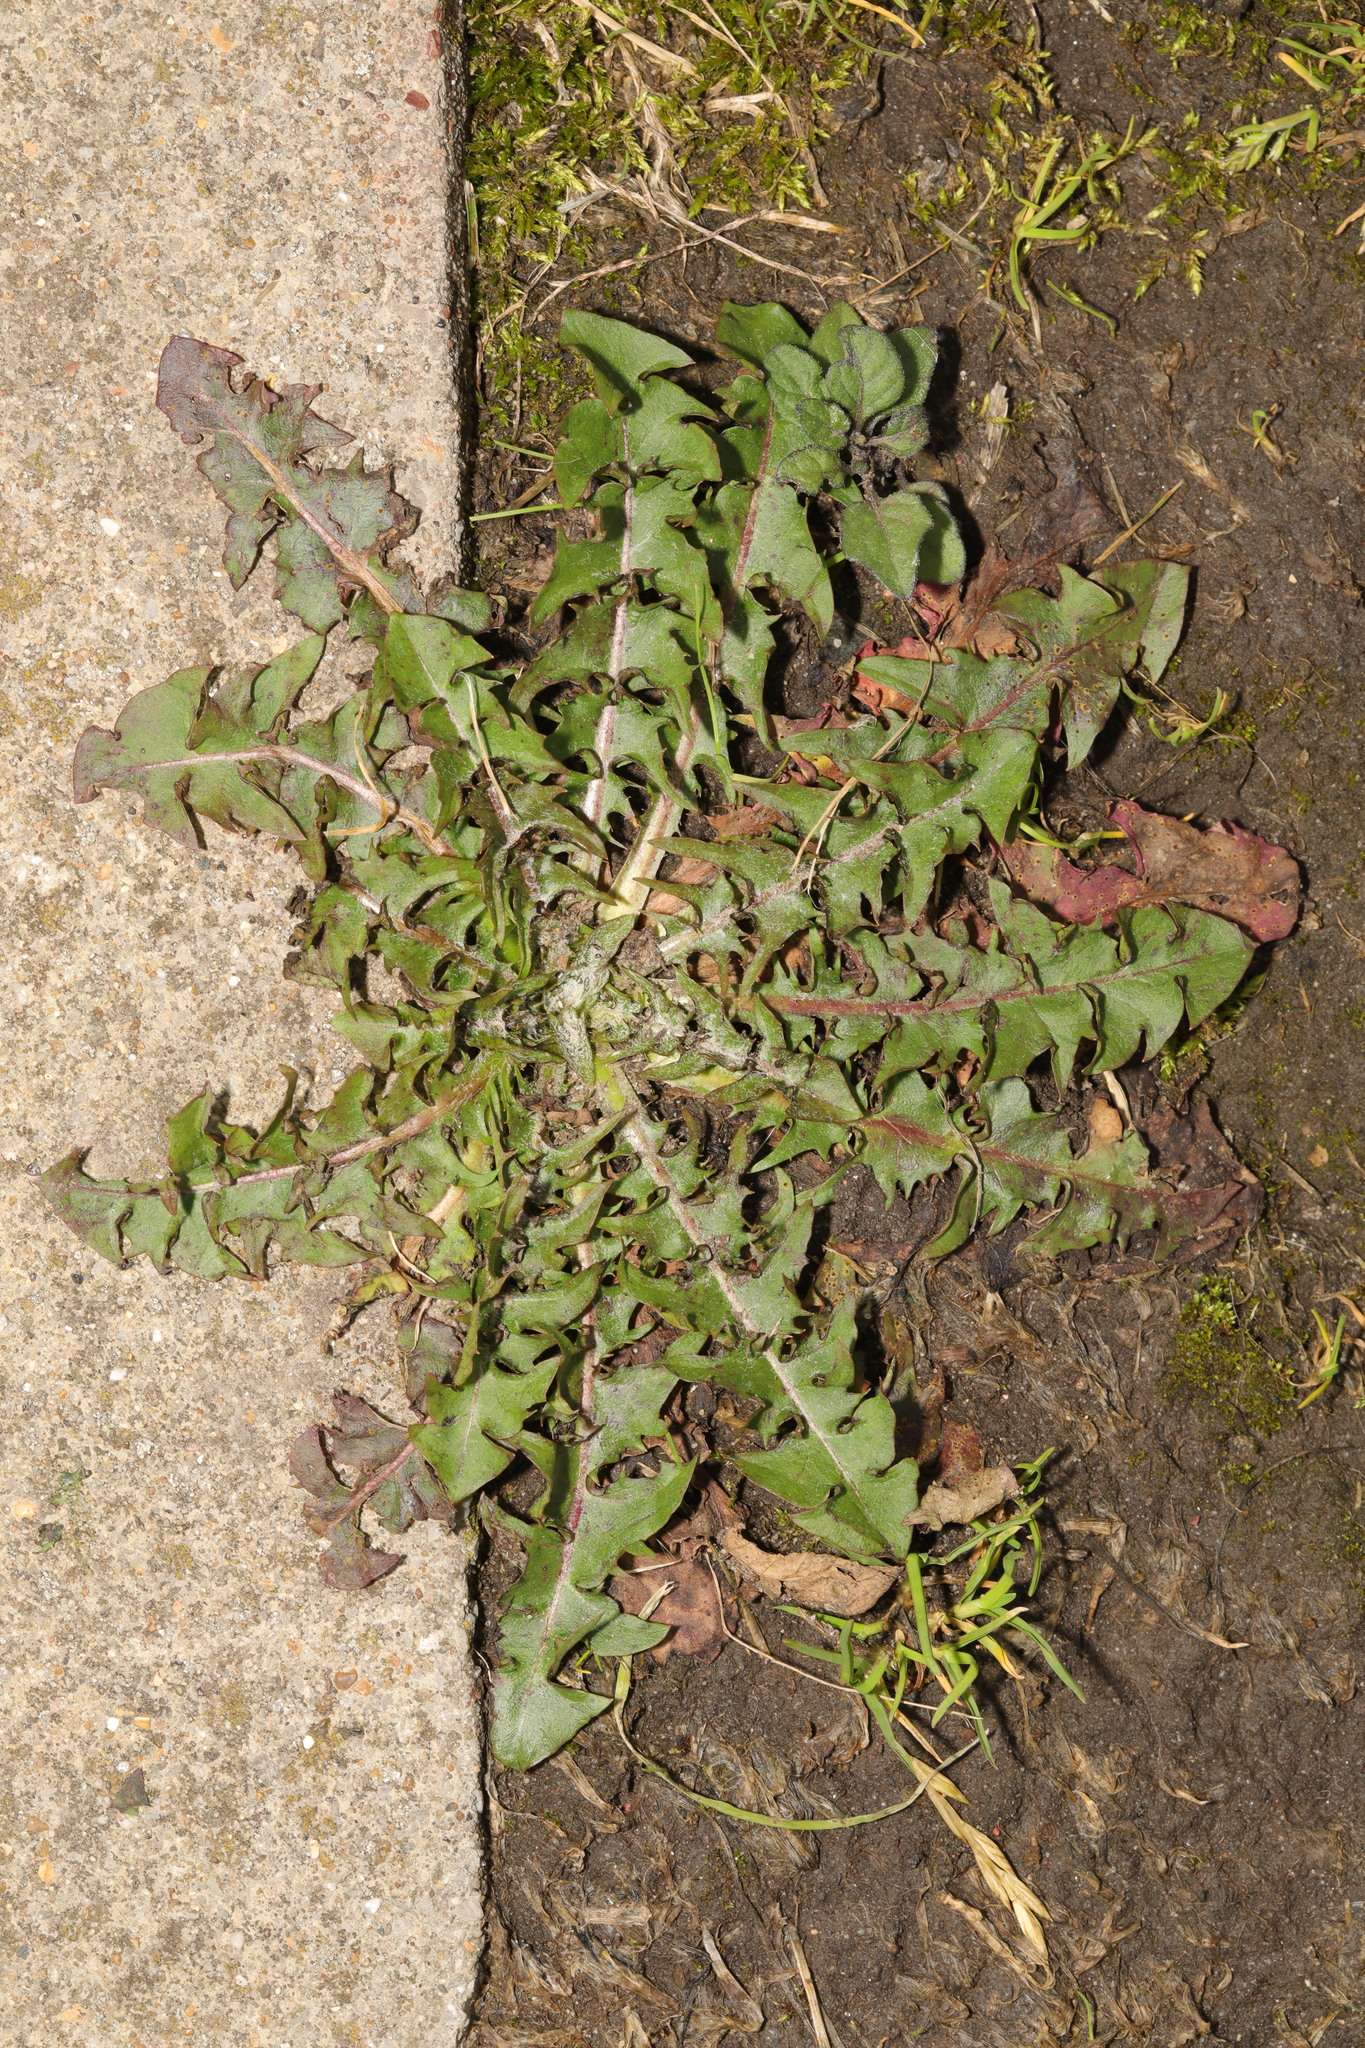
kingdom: Plantae
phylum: Tracheophyta
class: Magnoliopsida
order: Asterales
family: Asteraceae
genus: Taraxacum
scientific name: Taraxacum officinale
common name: Common dandelion
